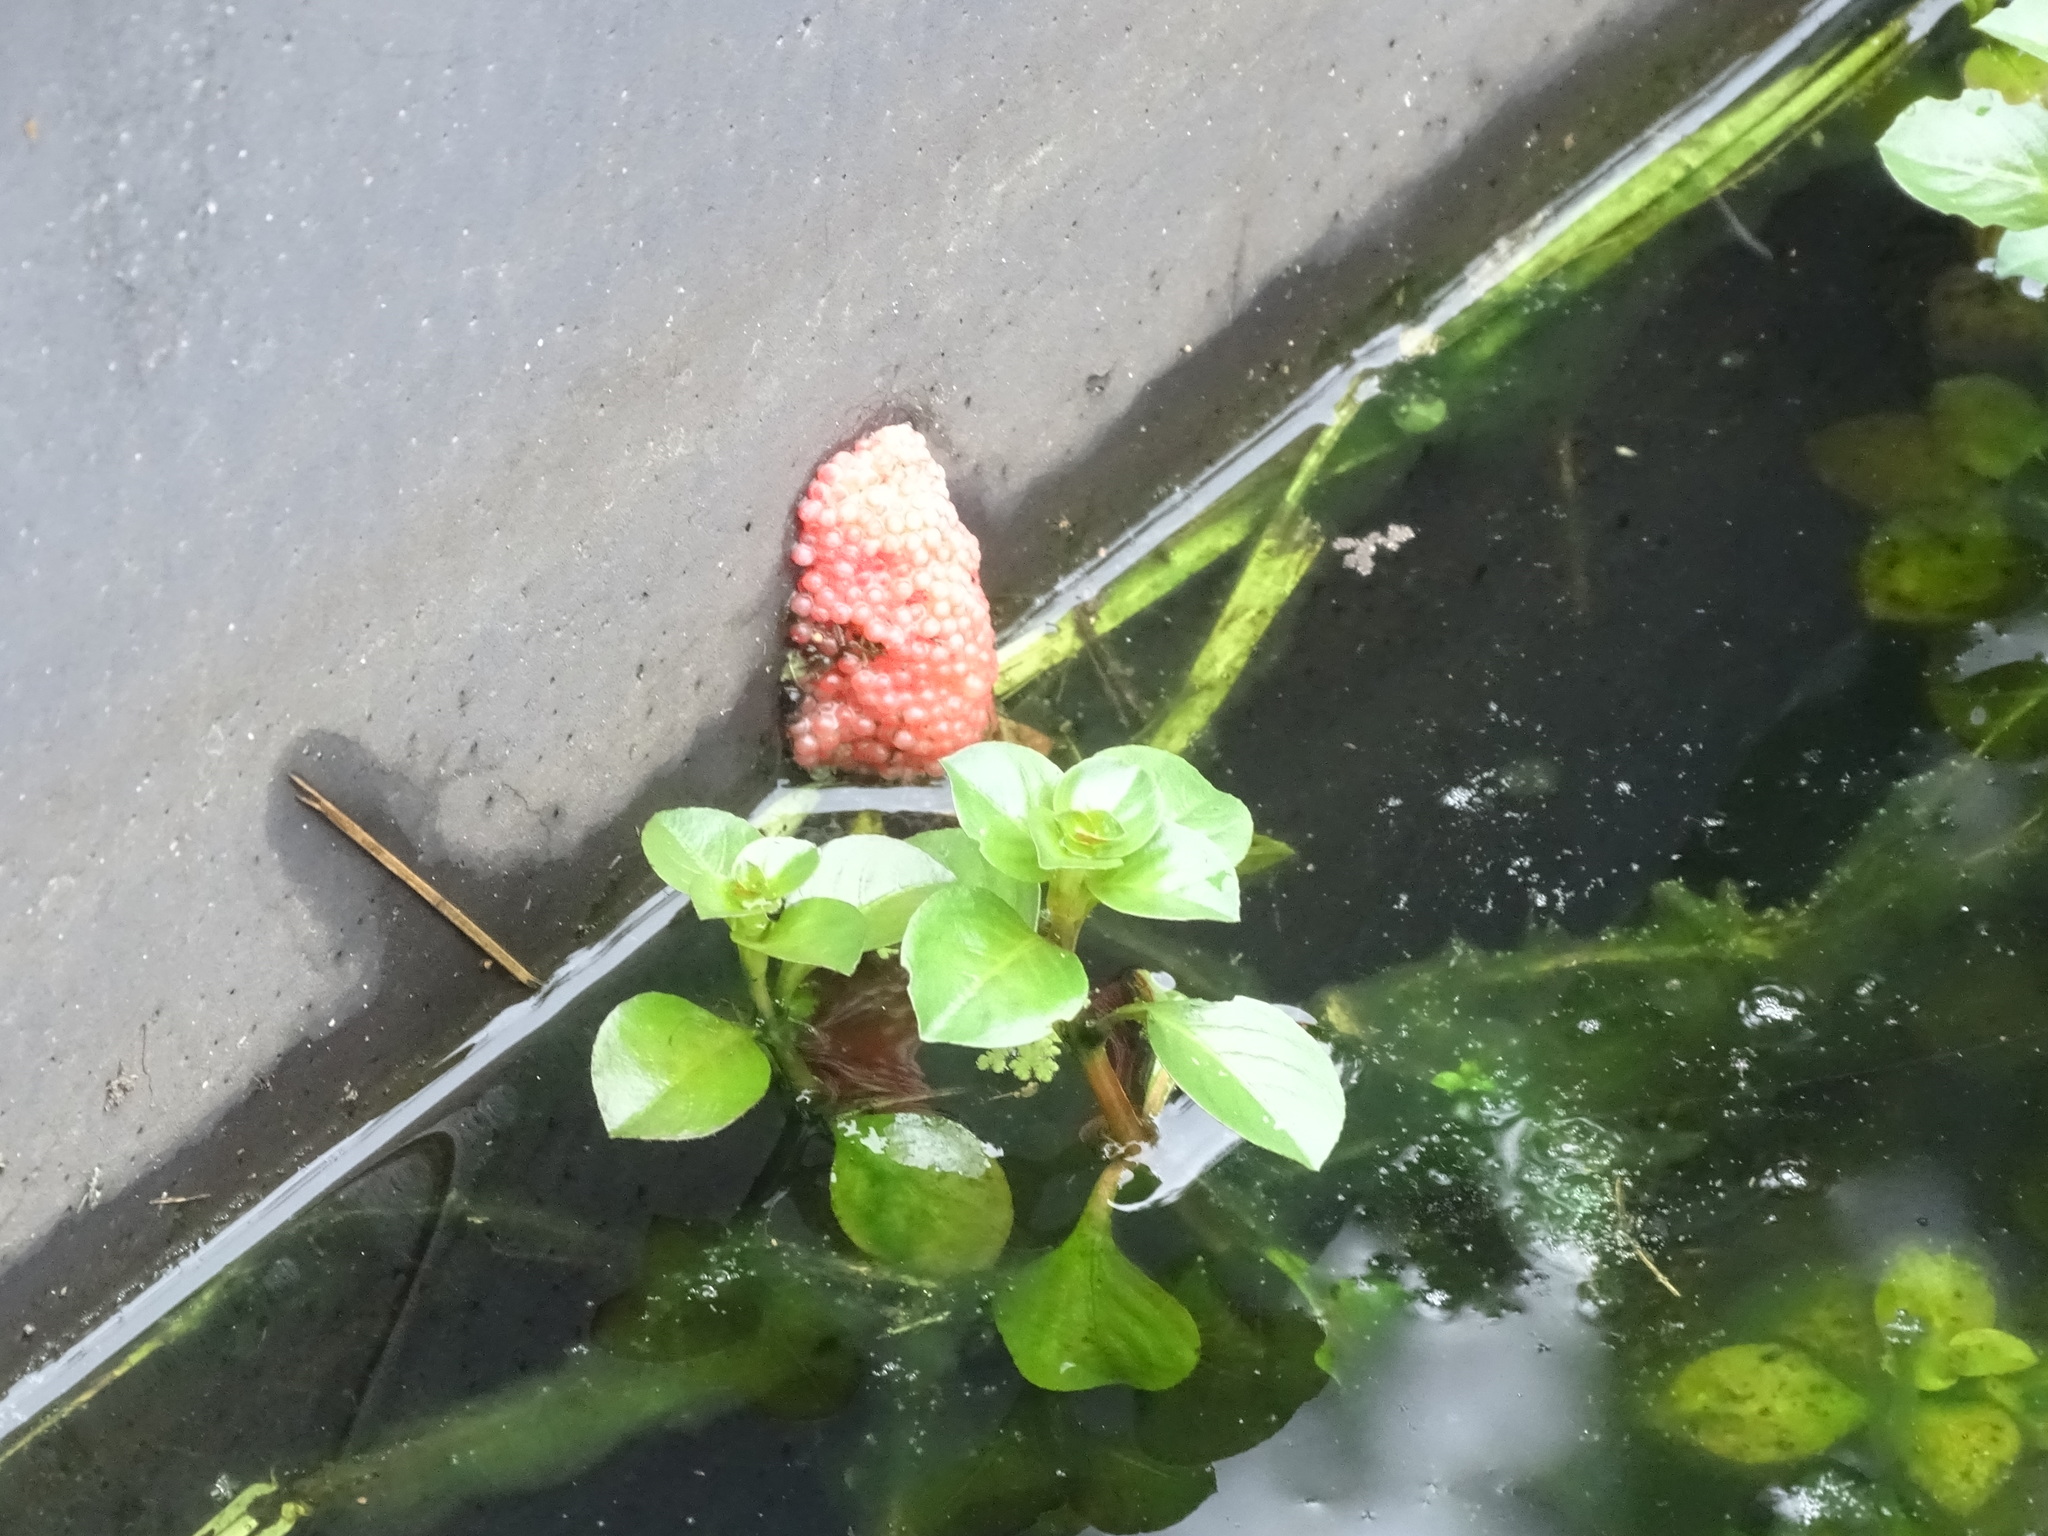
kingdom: Animalia
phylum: Mollusca
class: Gastropoda
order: Architaenioglossa
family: Ampullariidae
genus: Pomacea
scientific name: Pomacea maculata
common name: Giant applesnail
